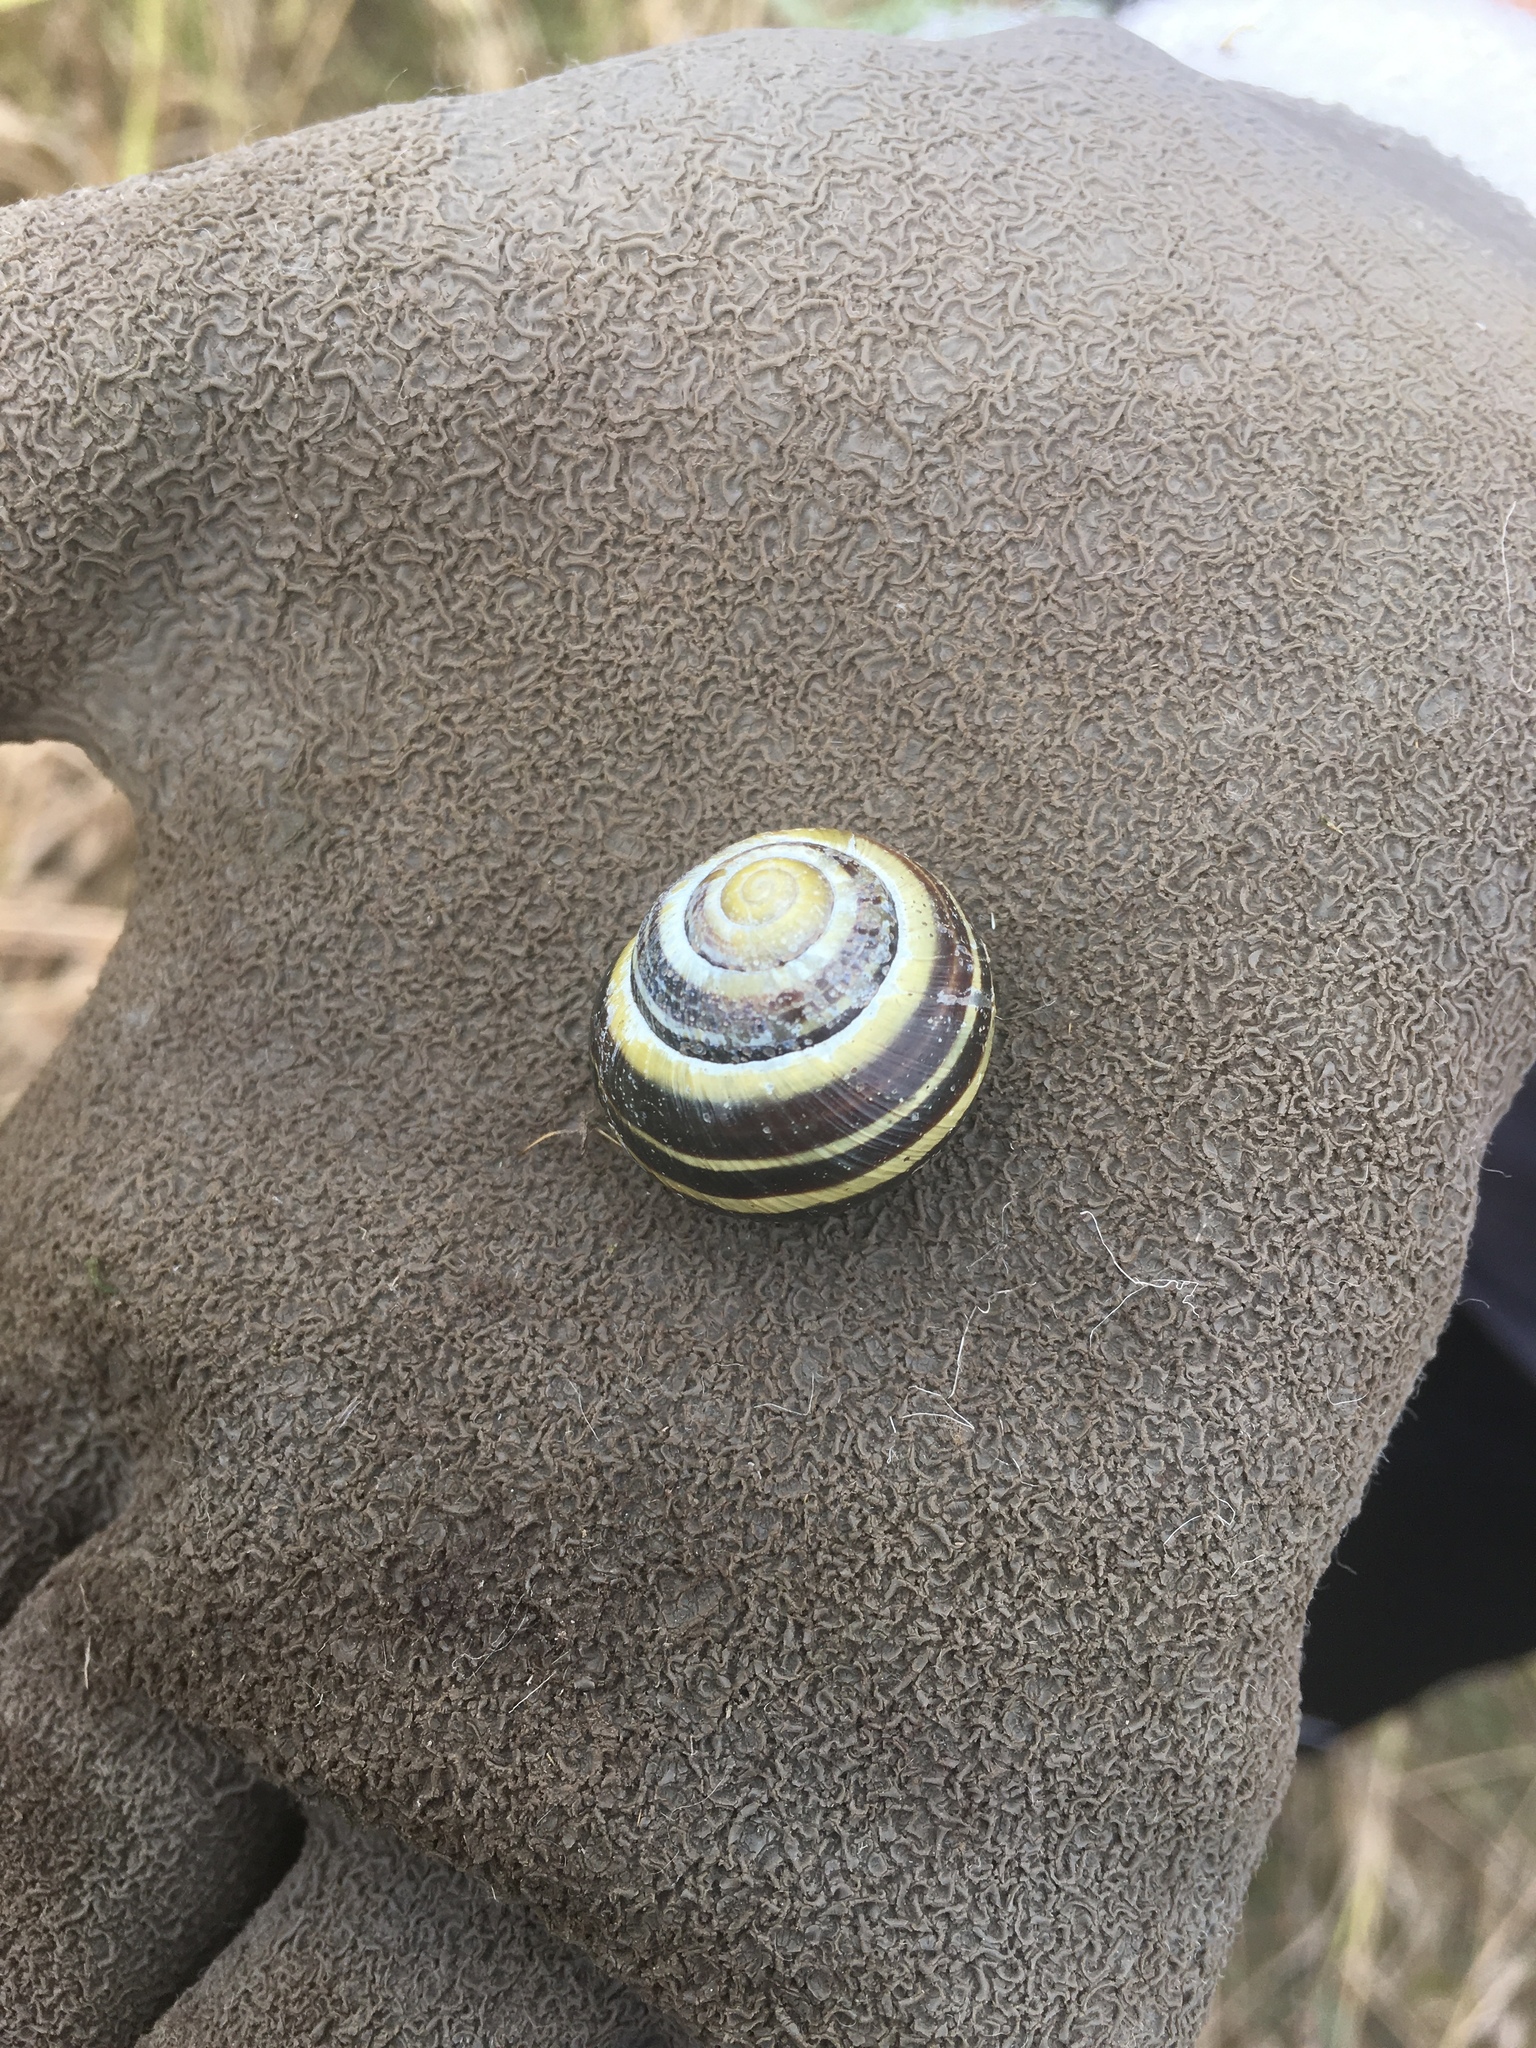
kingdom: Animalia
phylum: Mollusca
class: Gastropoda
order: Stylommatophora
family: Helicidae
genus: Cepaea
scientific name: Cepaea nemoralis
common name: Grovesnail
